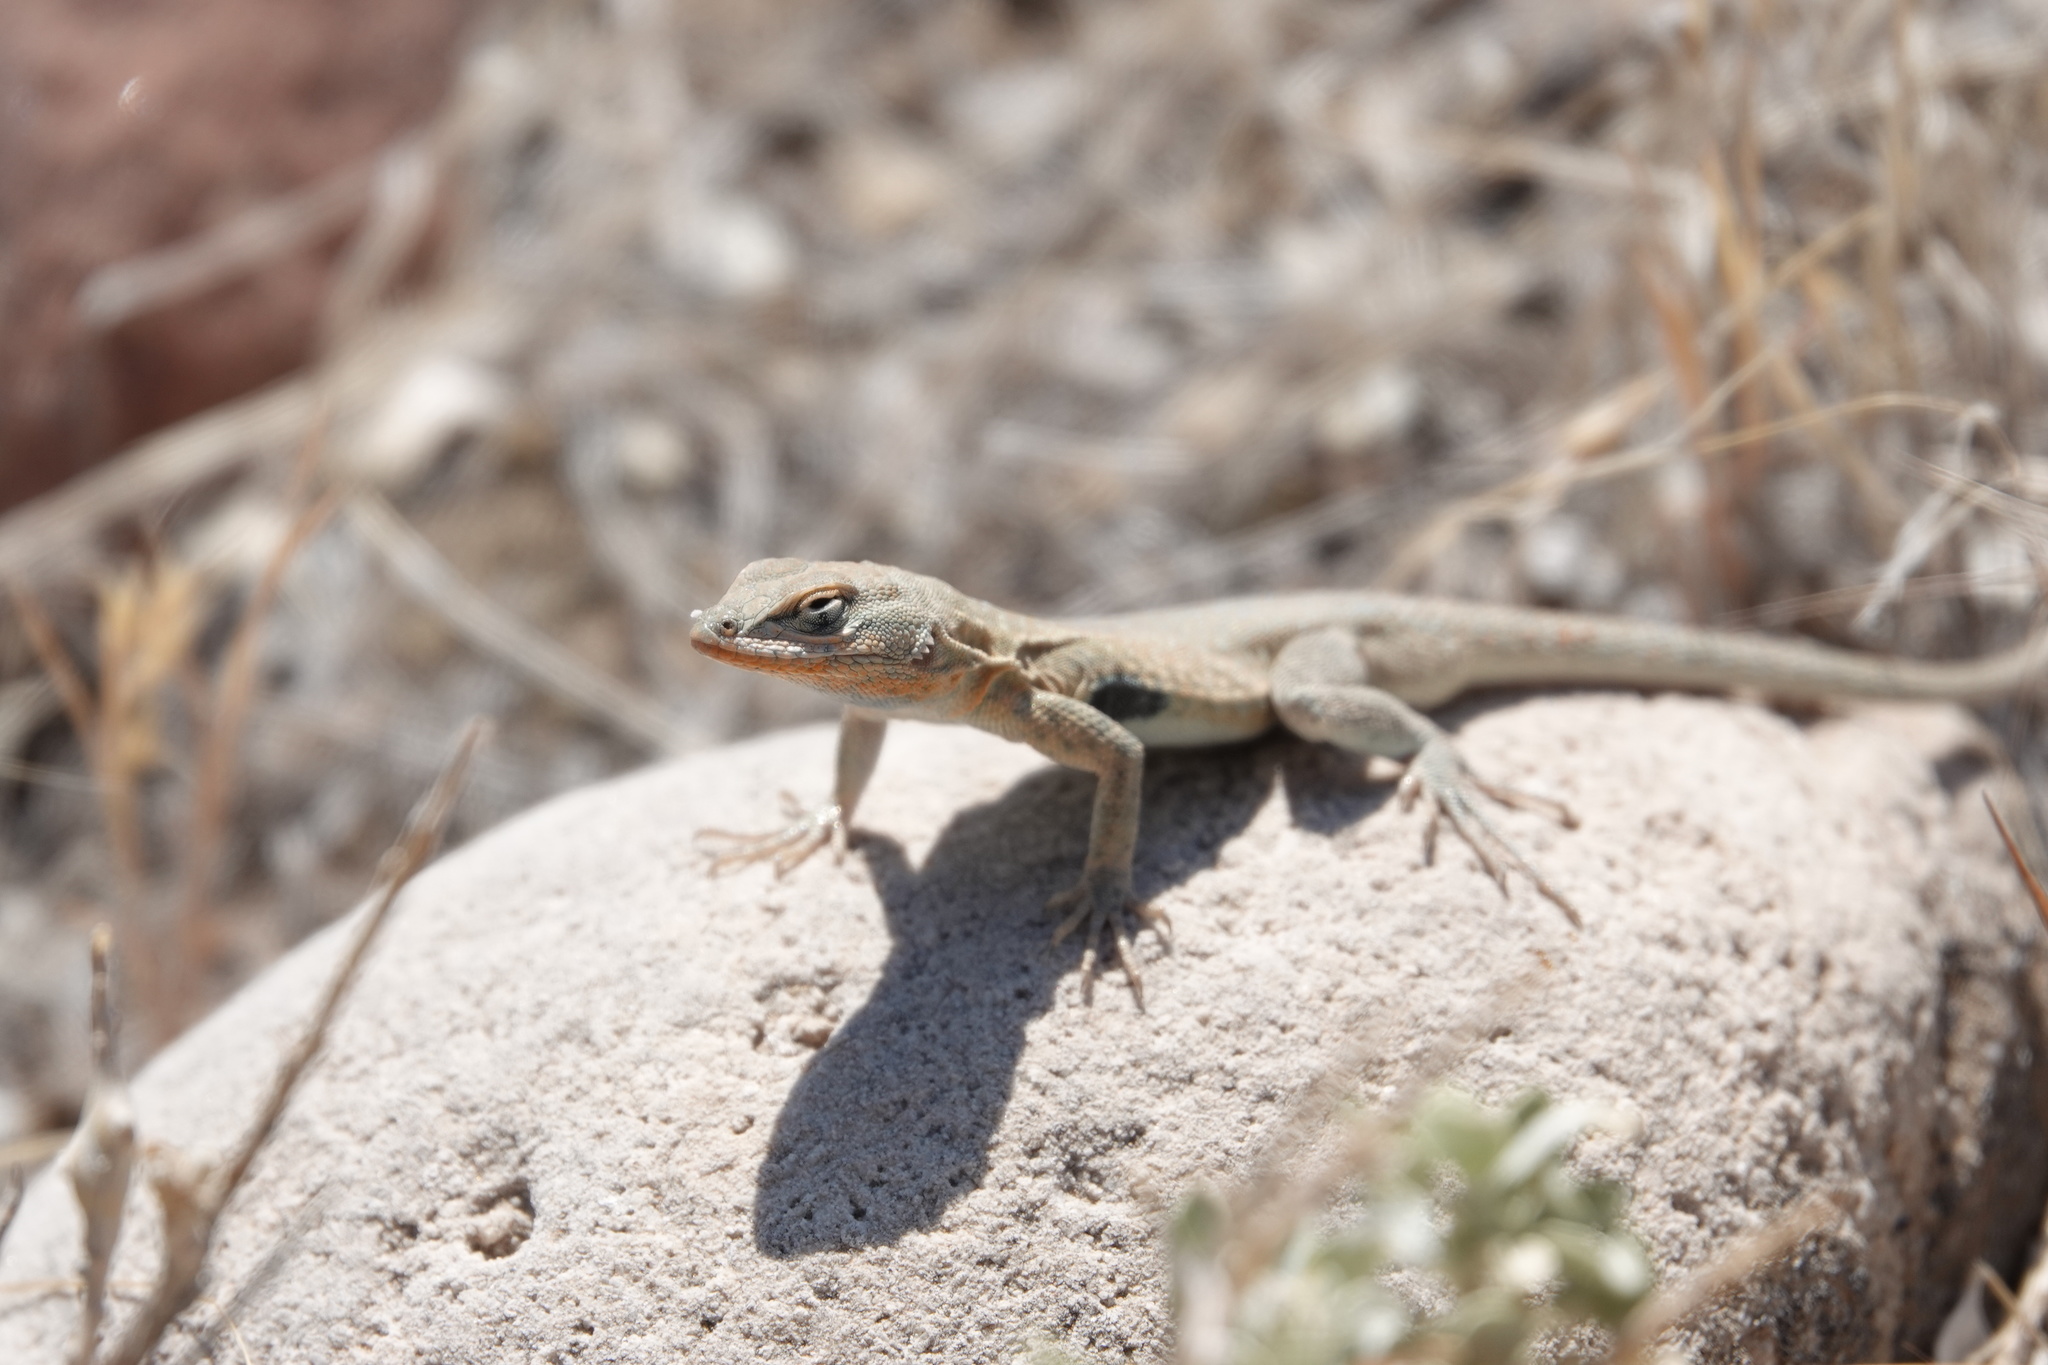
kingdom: Animalia
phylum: Chordata
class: Squamata
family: Phrynosomatidae
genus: Uta
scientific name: Uta stansburiana
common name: Side-blotched lizard
